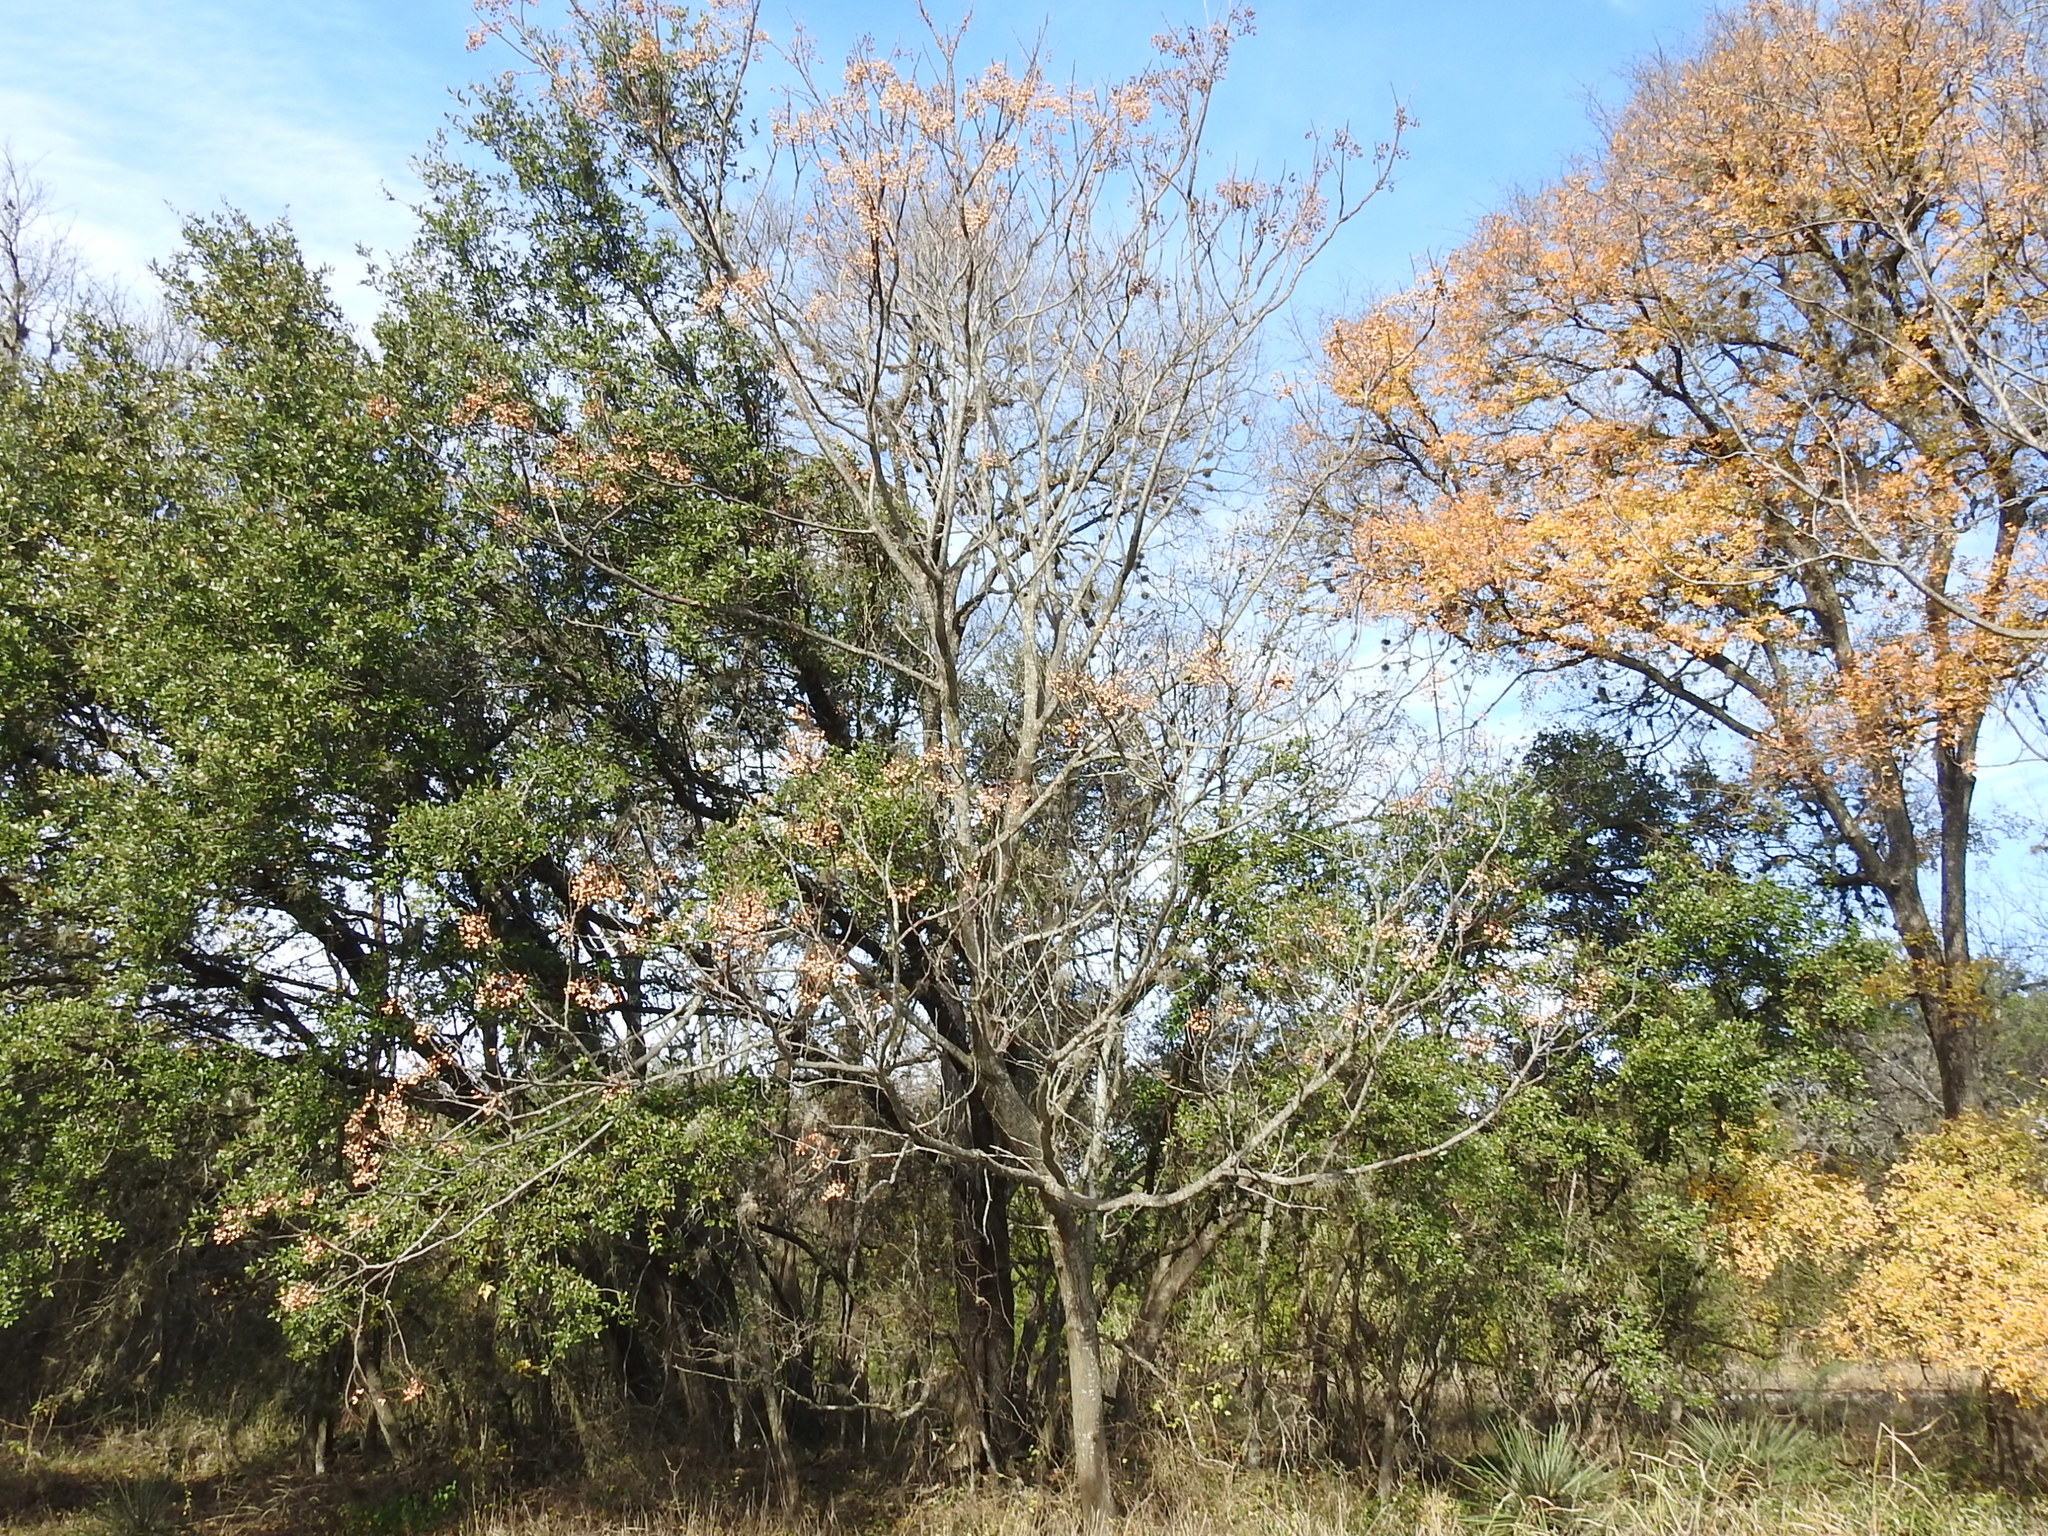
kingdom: Plantae
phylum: Tracheophyta
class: Magnoliopsida
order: Sapindales
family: Meliaceae
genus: Melia
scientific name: Melia azedarach
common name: Chinaberrytree
